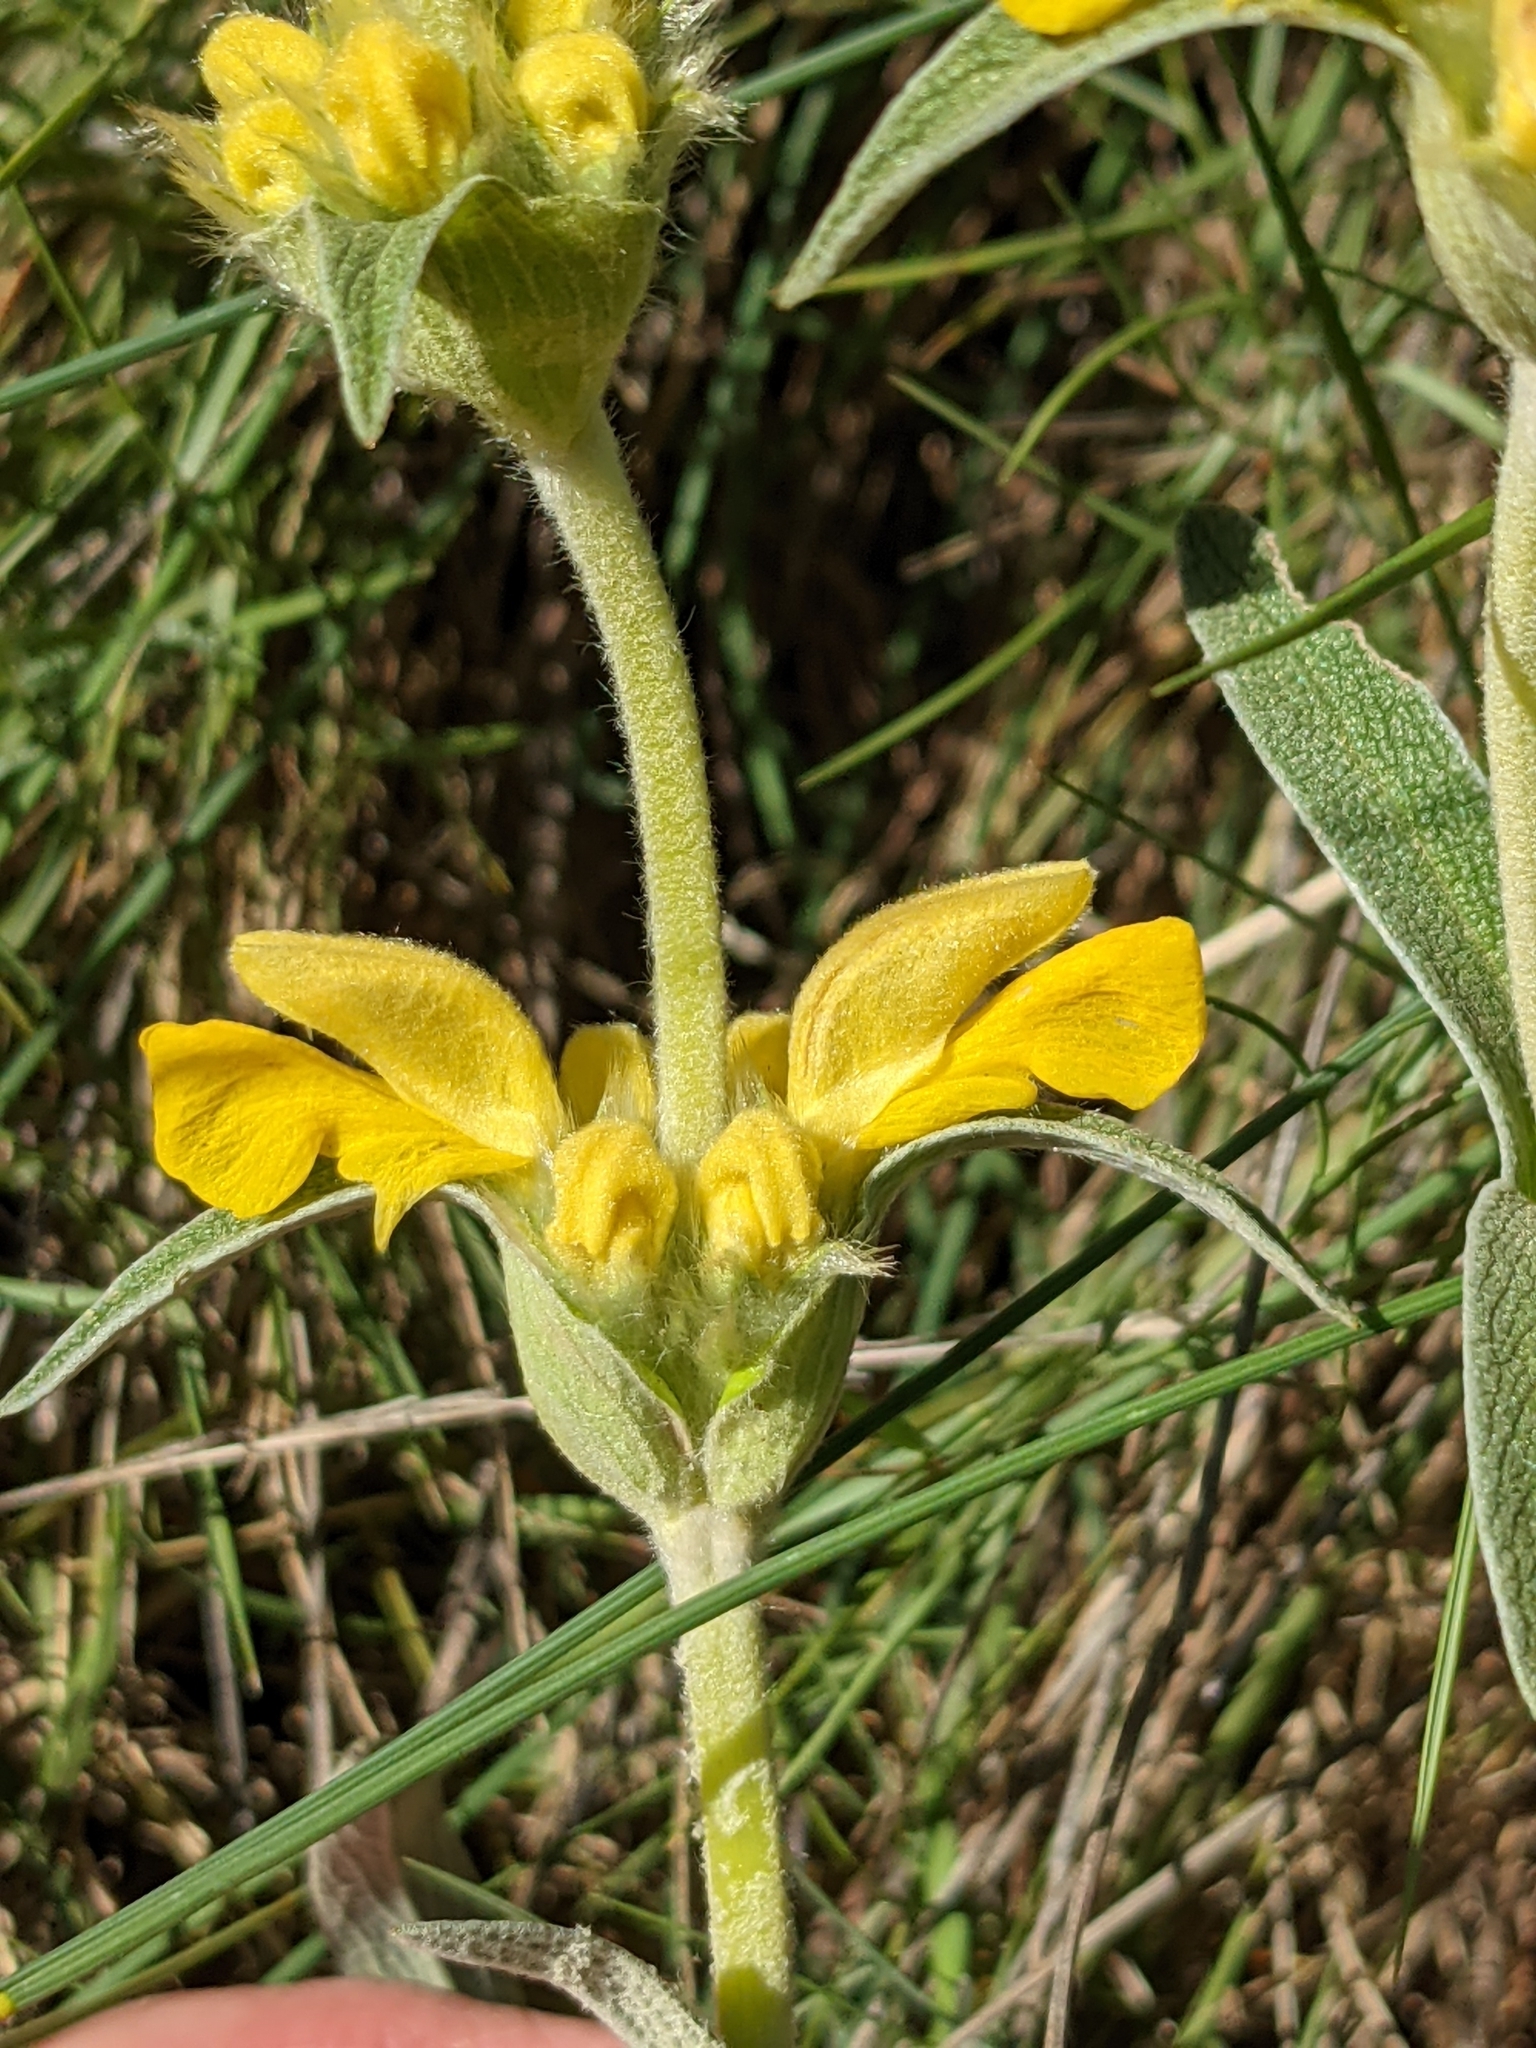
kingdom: Plantae
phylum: Tracheophyta
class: Magnoliopsida
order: Lamiales
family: Lamiaceae
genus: Phlomis
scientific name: Phlomis lychnitis
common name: Lampwickplant
